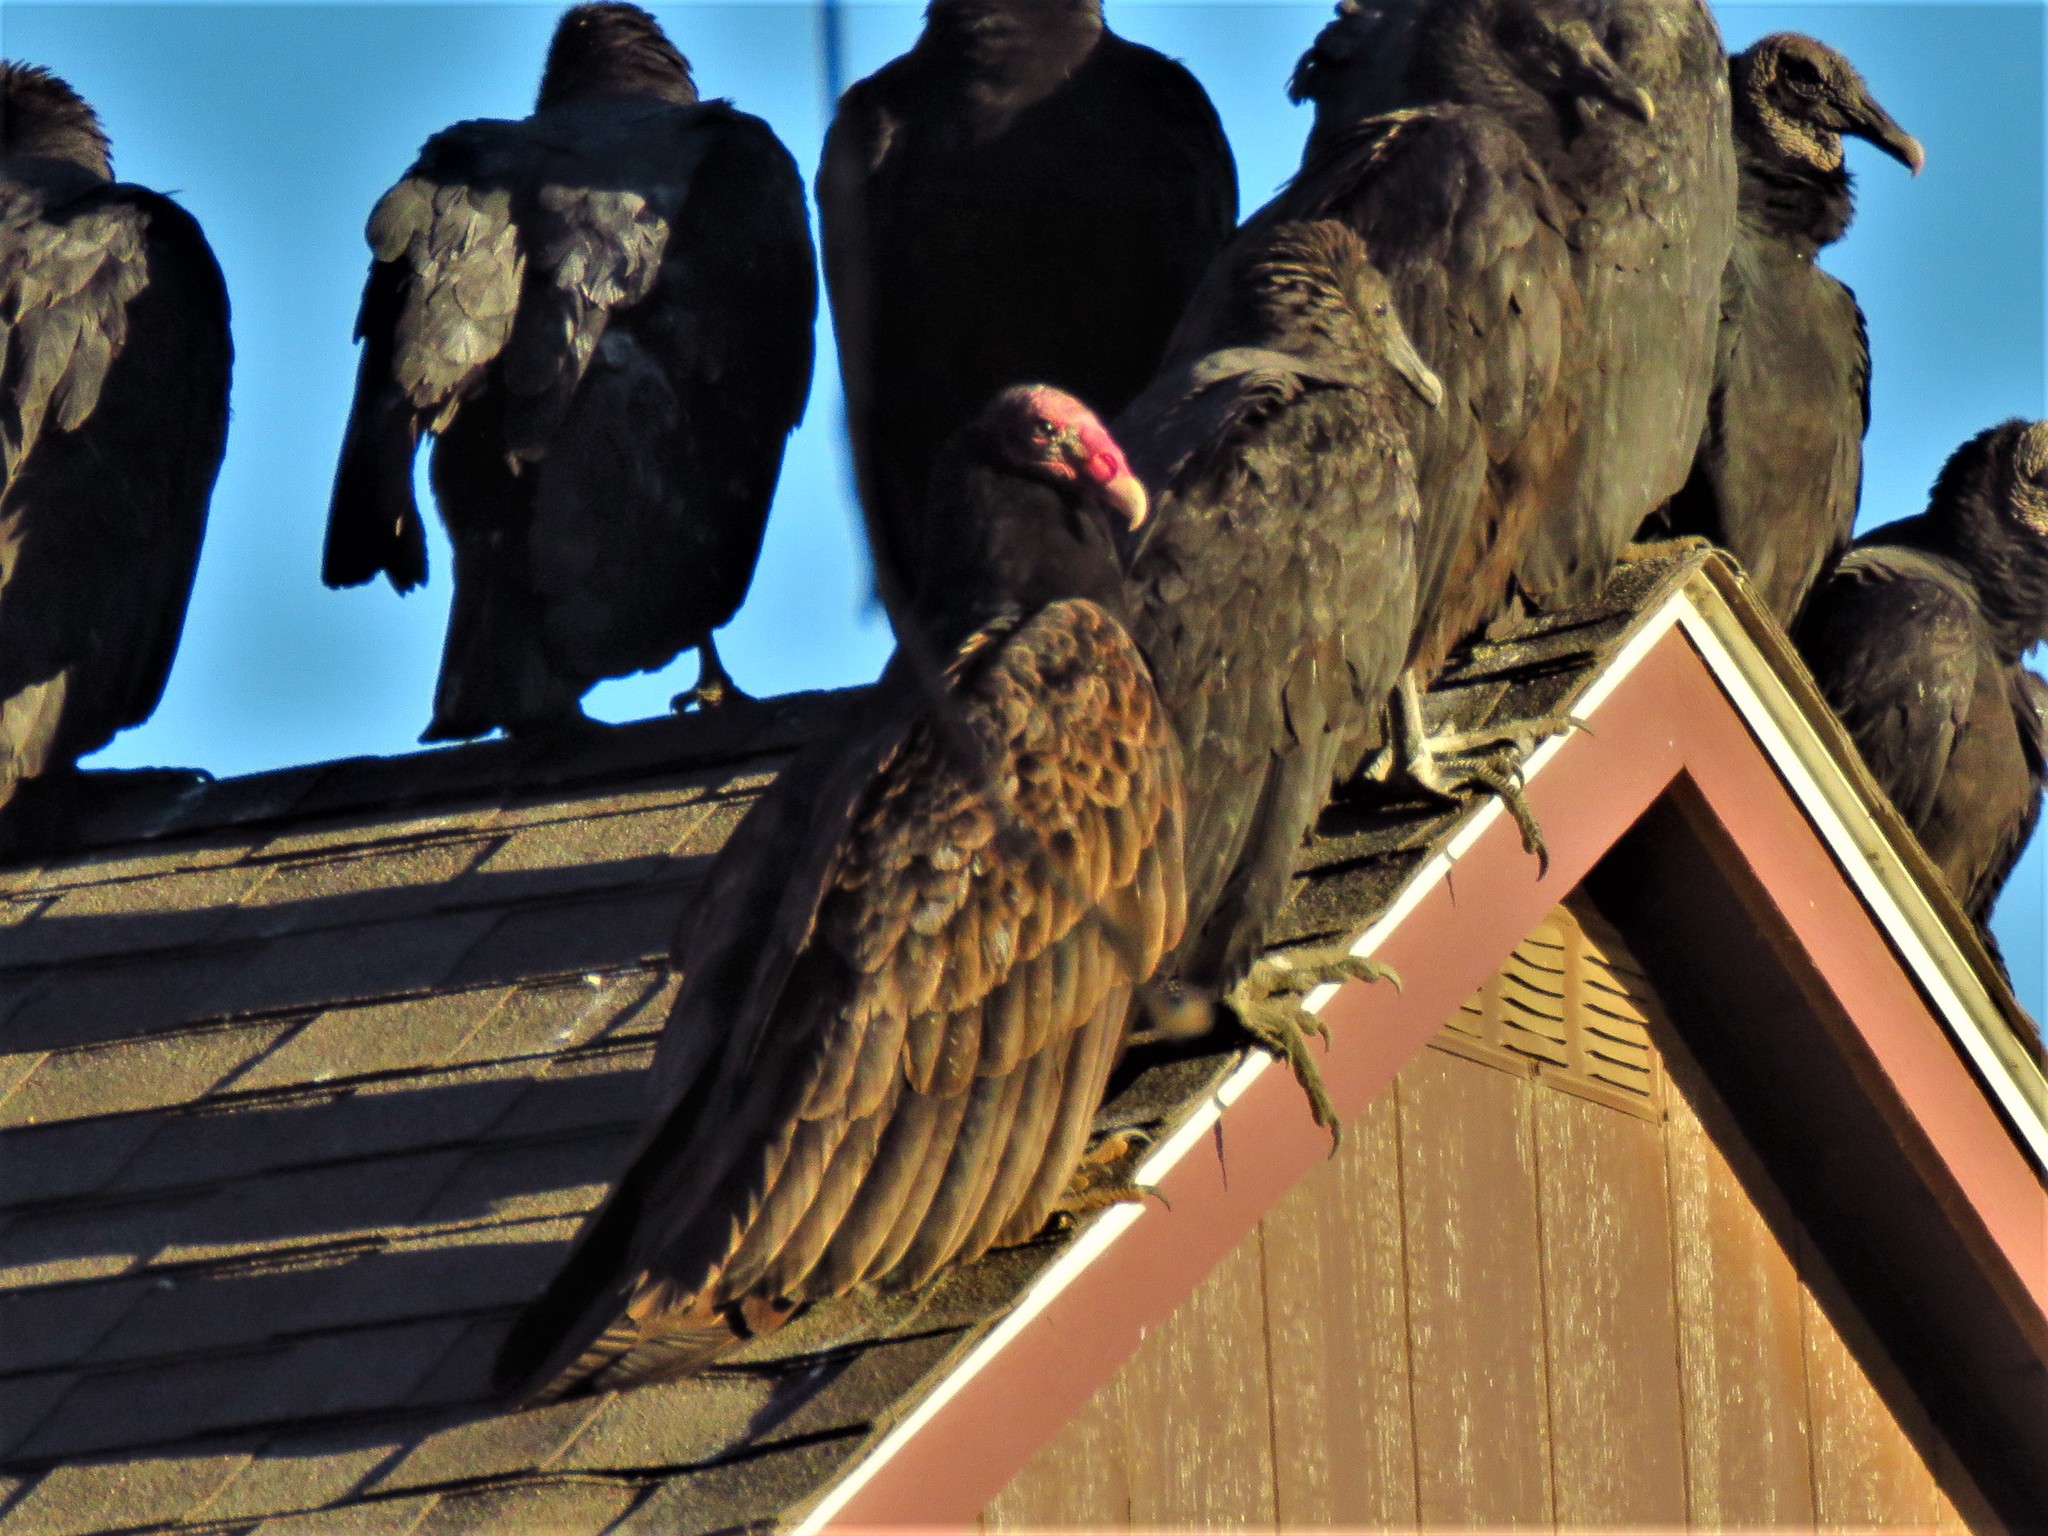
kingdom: Animalia
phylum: Chordata
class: Aves
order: Accipitriformes
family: Cathartidae
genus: Cathartes
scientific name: Cathartes aura
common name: Turkey vulture
